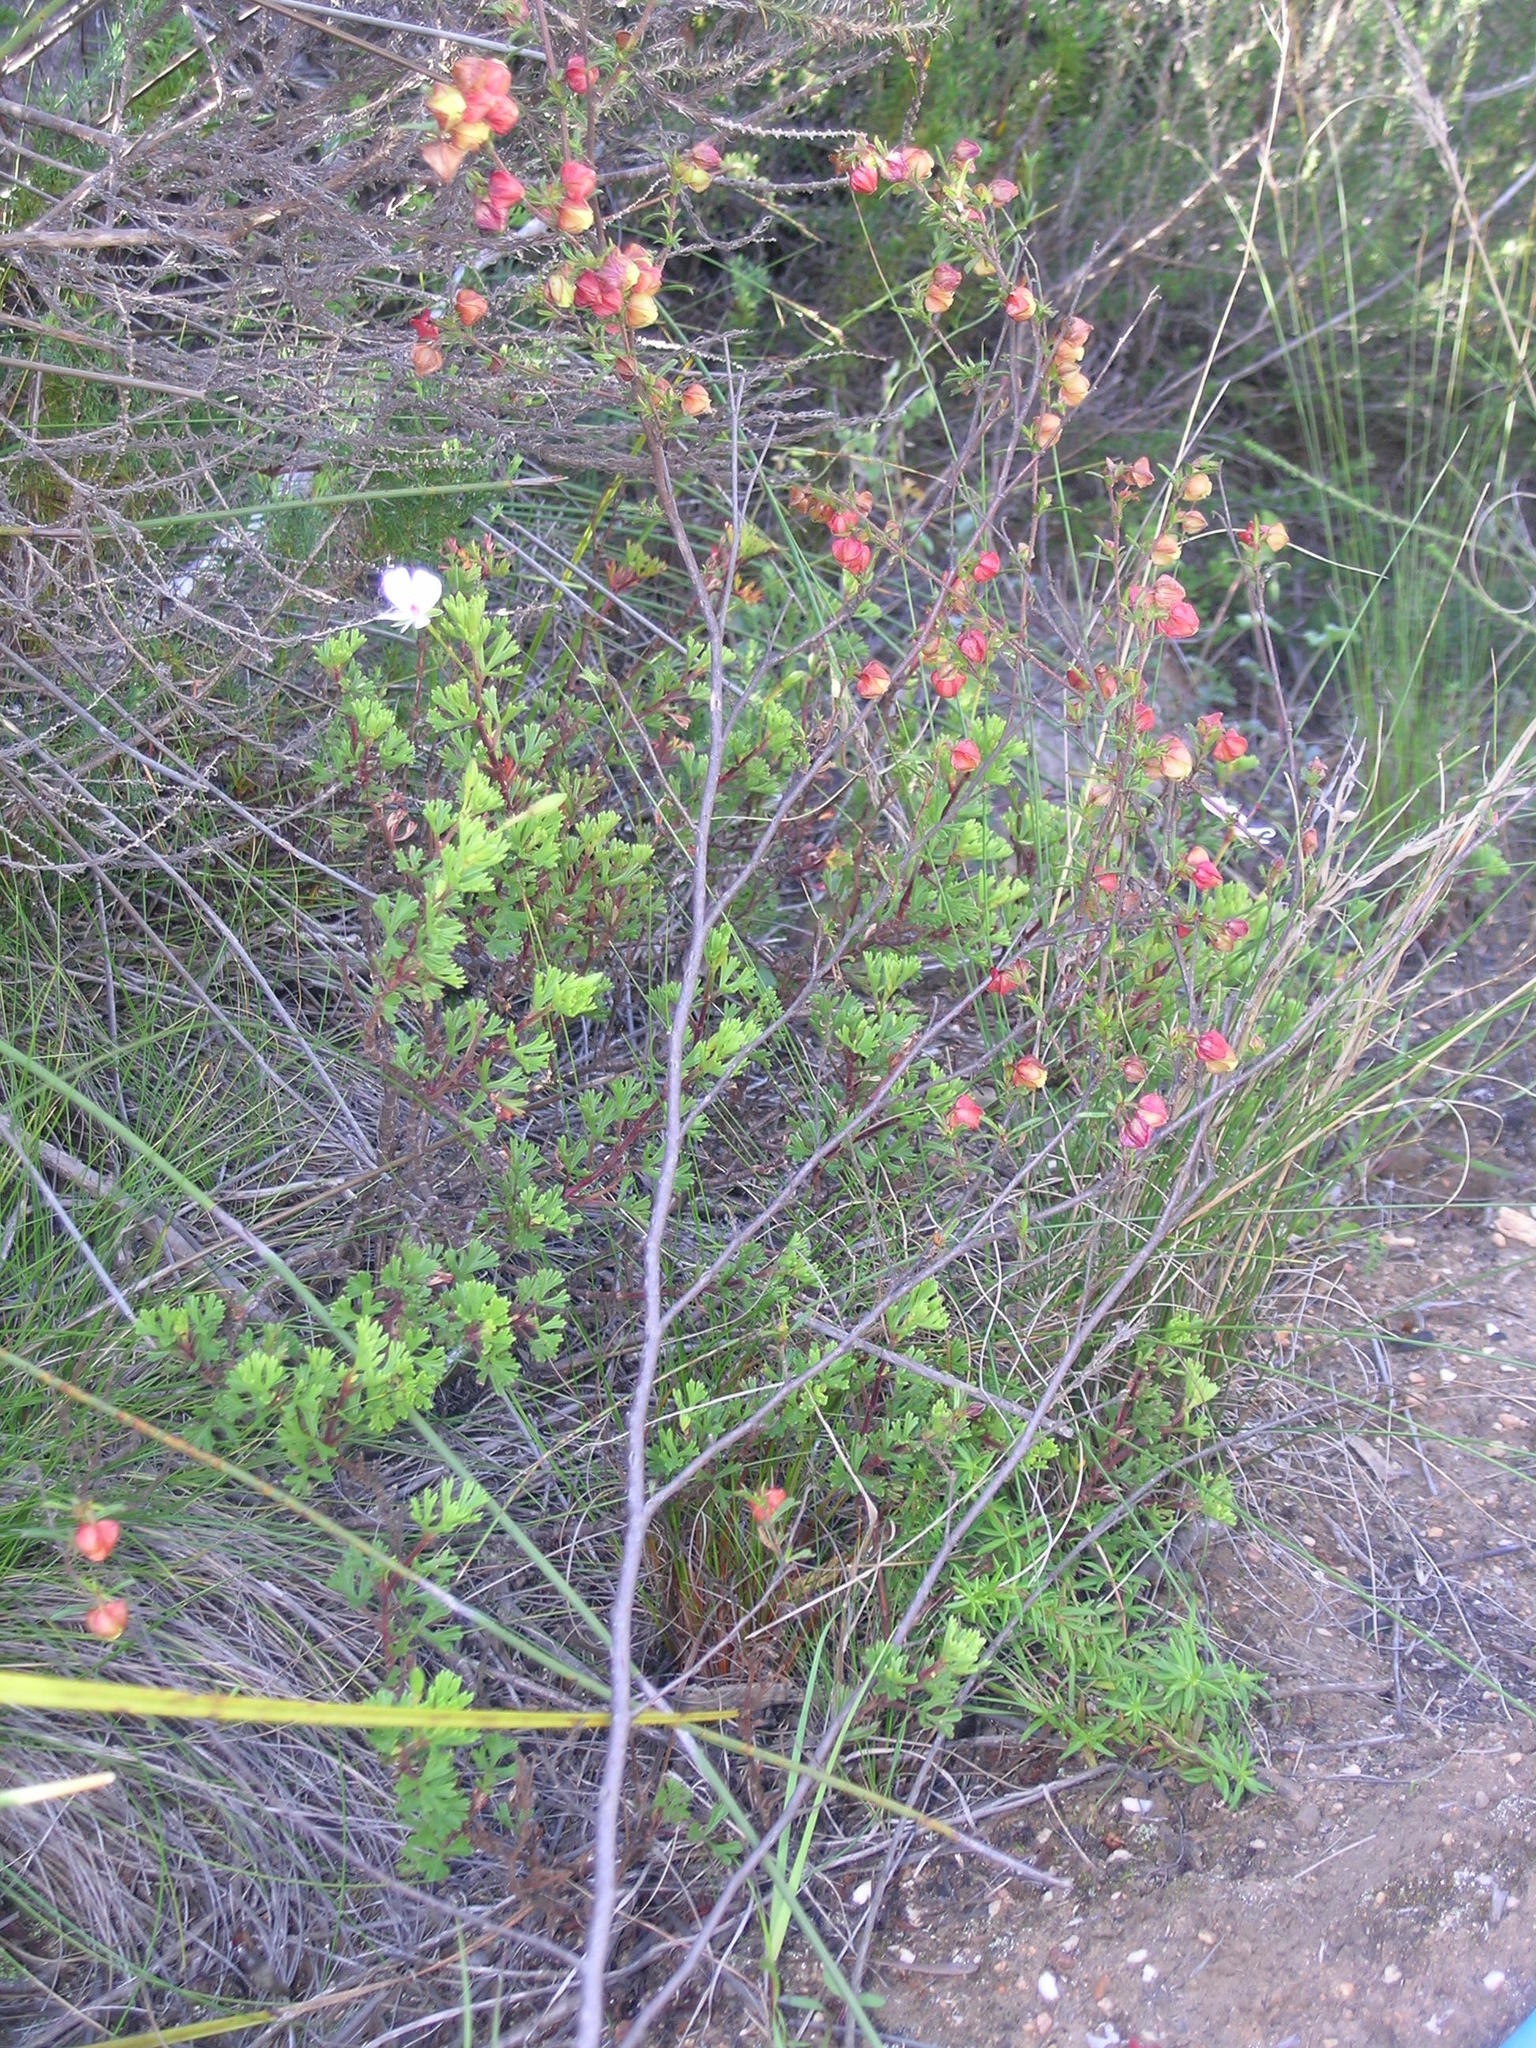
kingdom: Plantae
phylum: Tracheophyta
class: Magnoliopsida
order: Malvales
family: Malvaceae
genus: Hermannia
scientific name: Hermannia angularis
